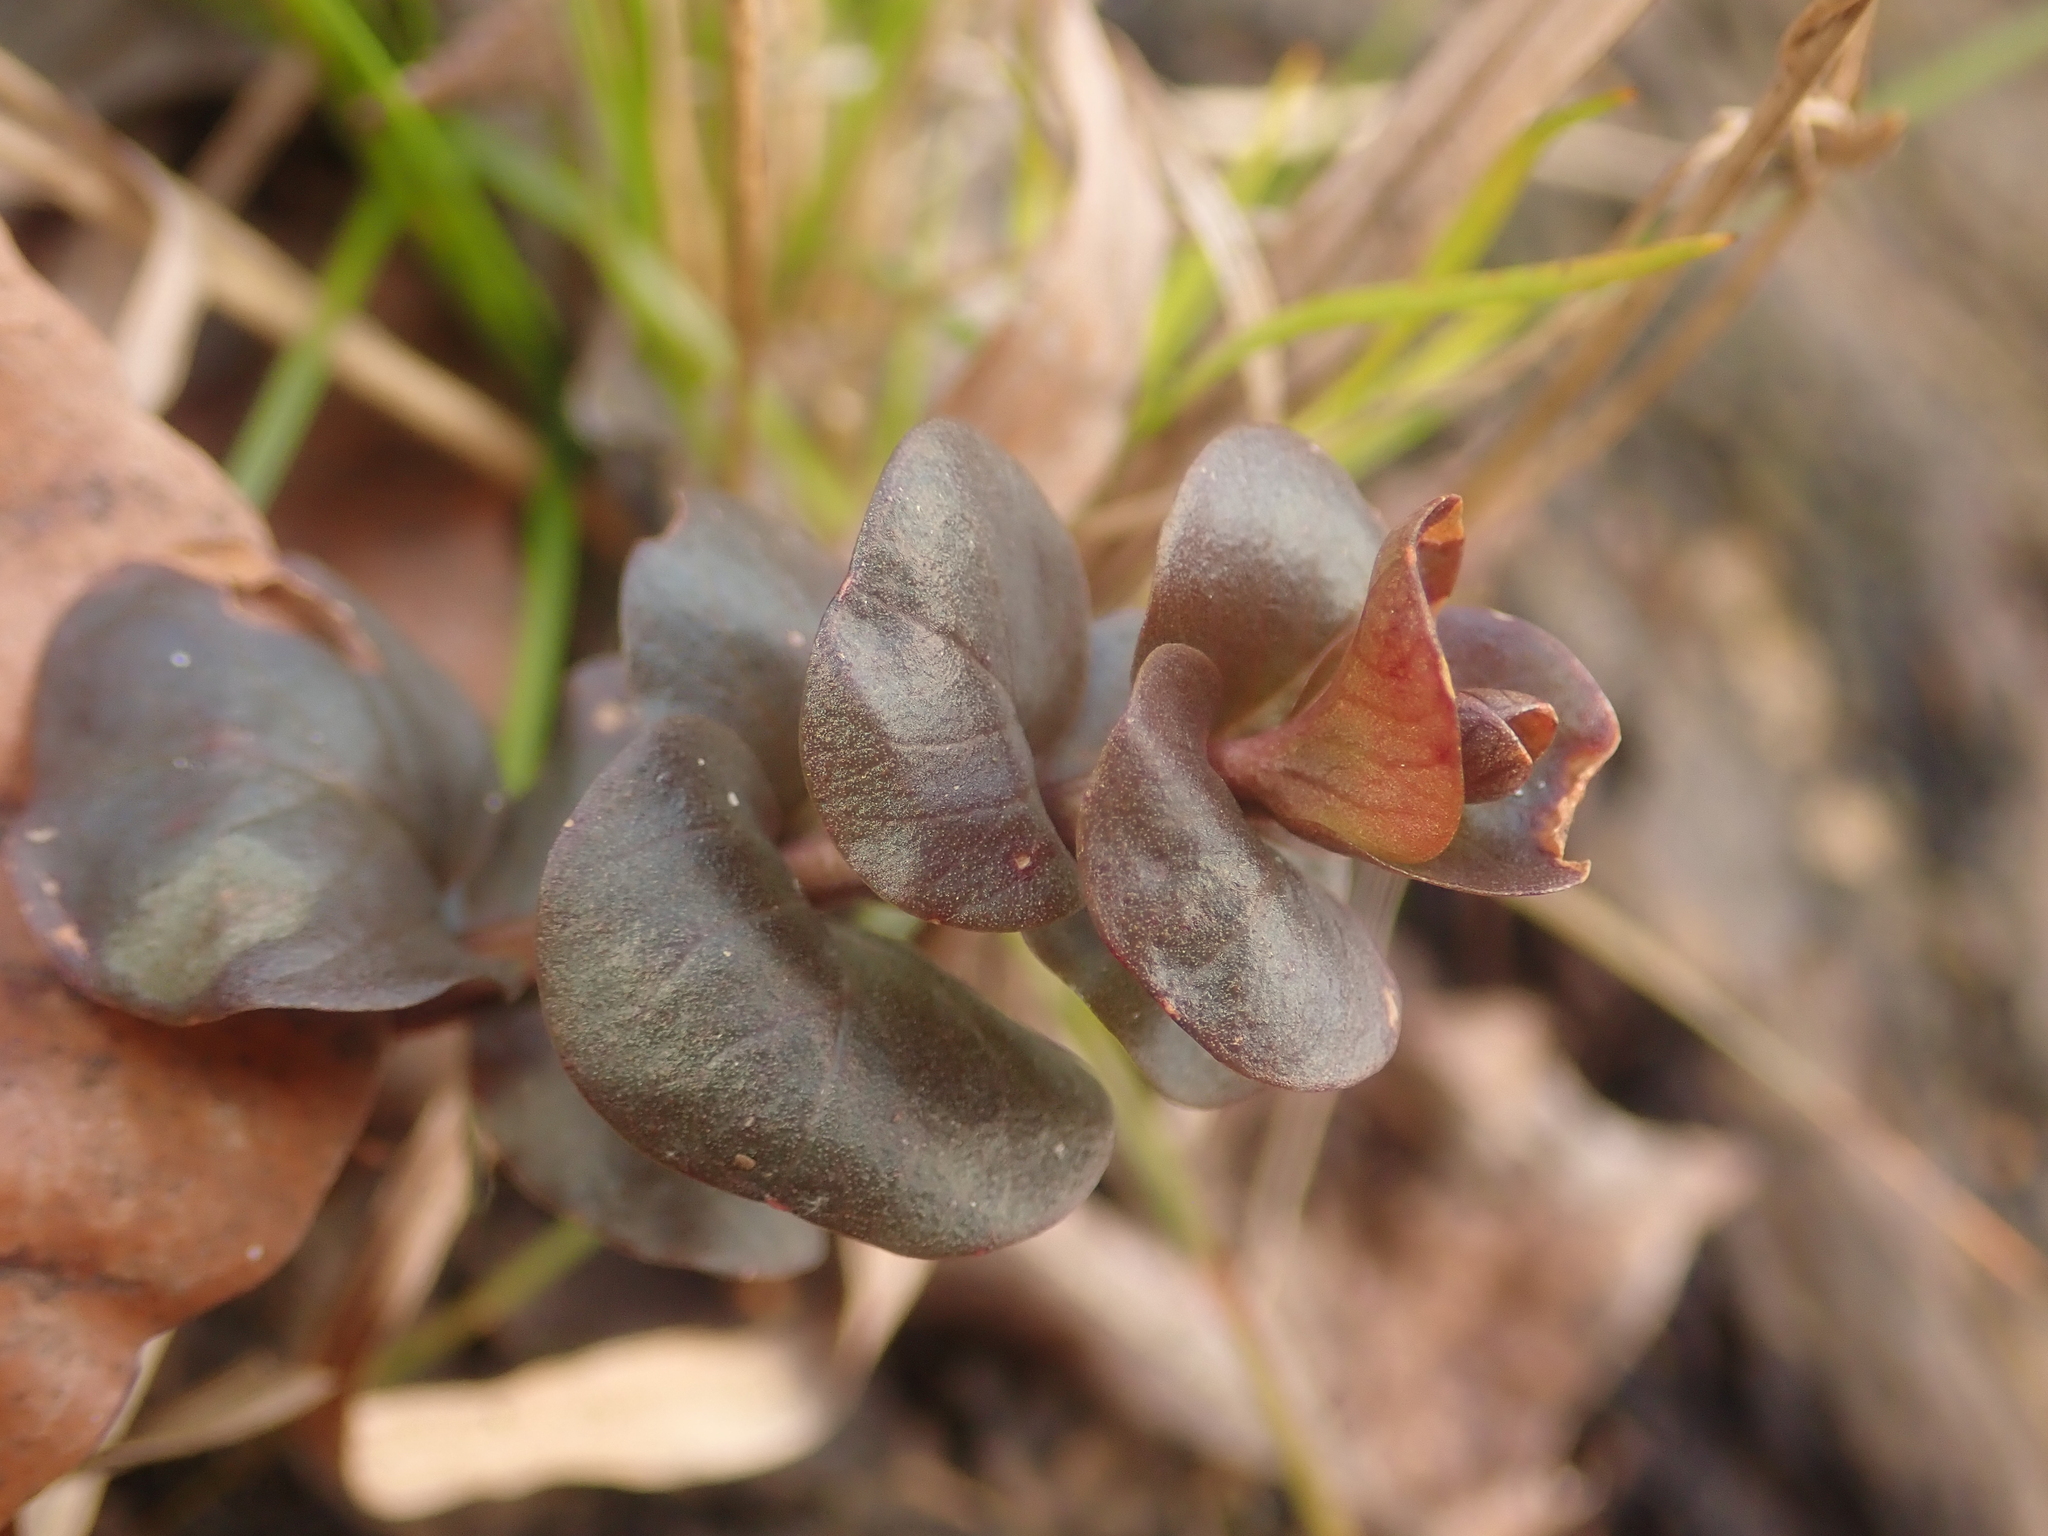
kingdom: Plantae
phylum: Tracheophyta
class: Magnoliopsida
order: Ericales
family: Primulaceae
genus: Lysimachia
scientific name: Lysimachia nummularia
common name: Moneywort
